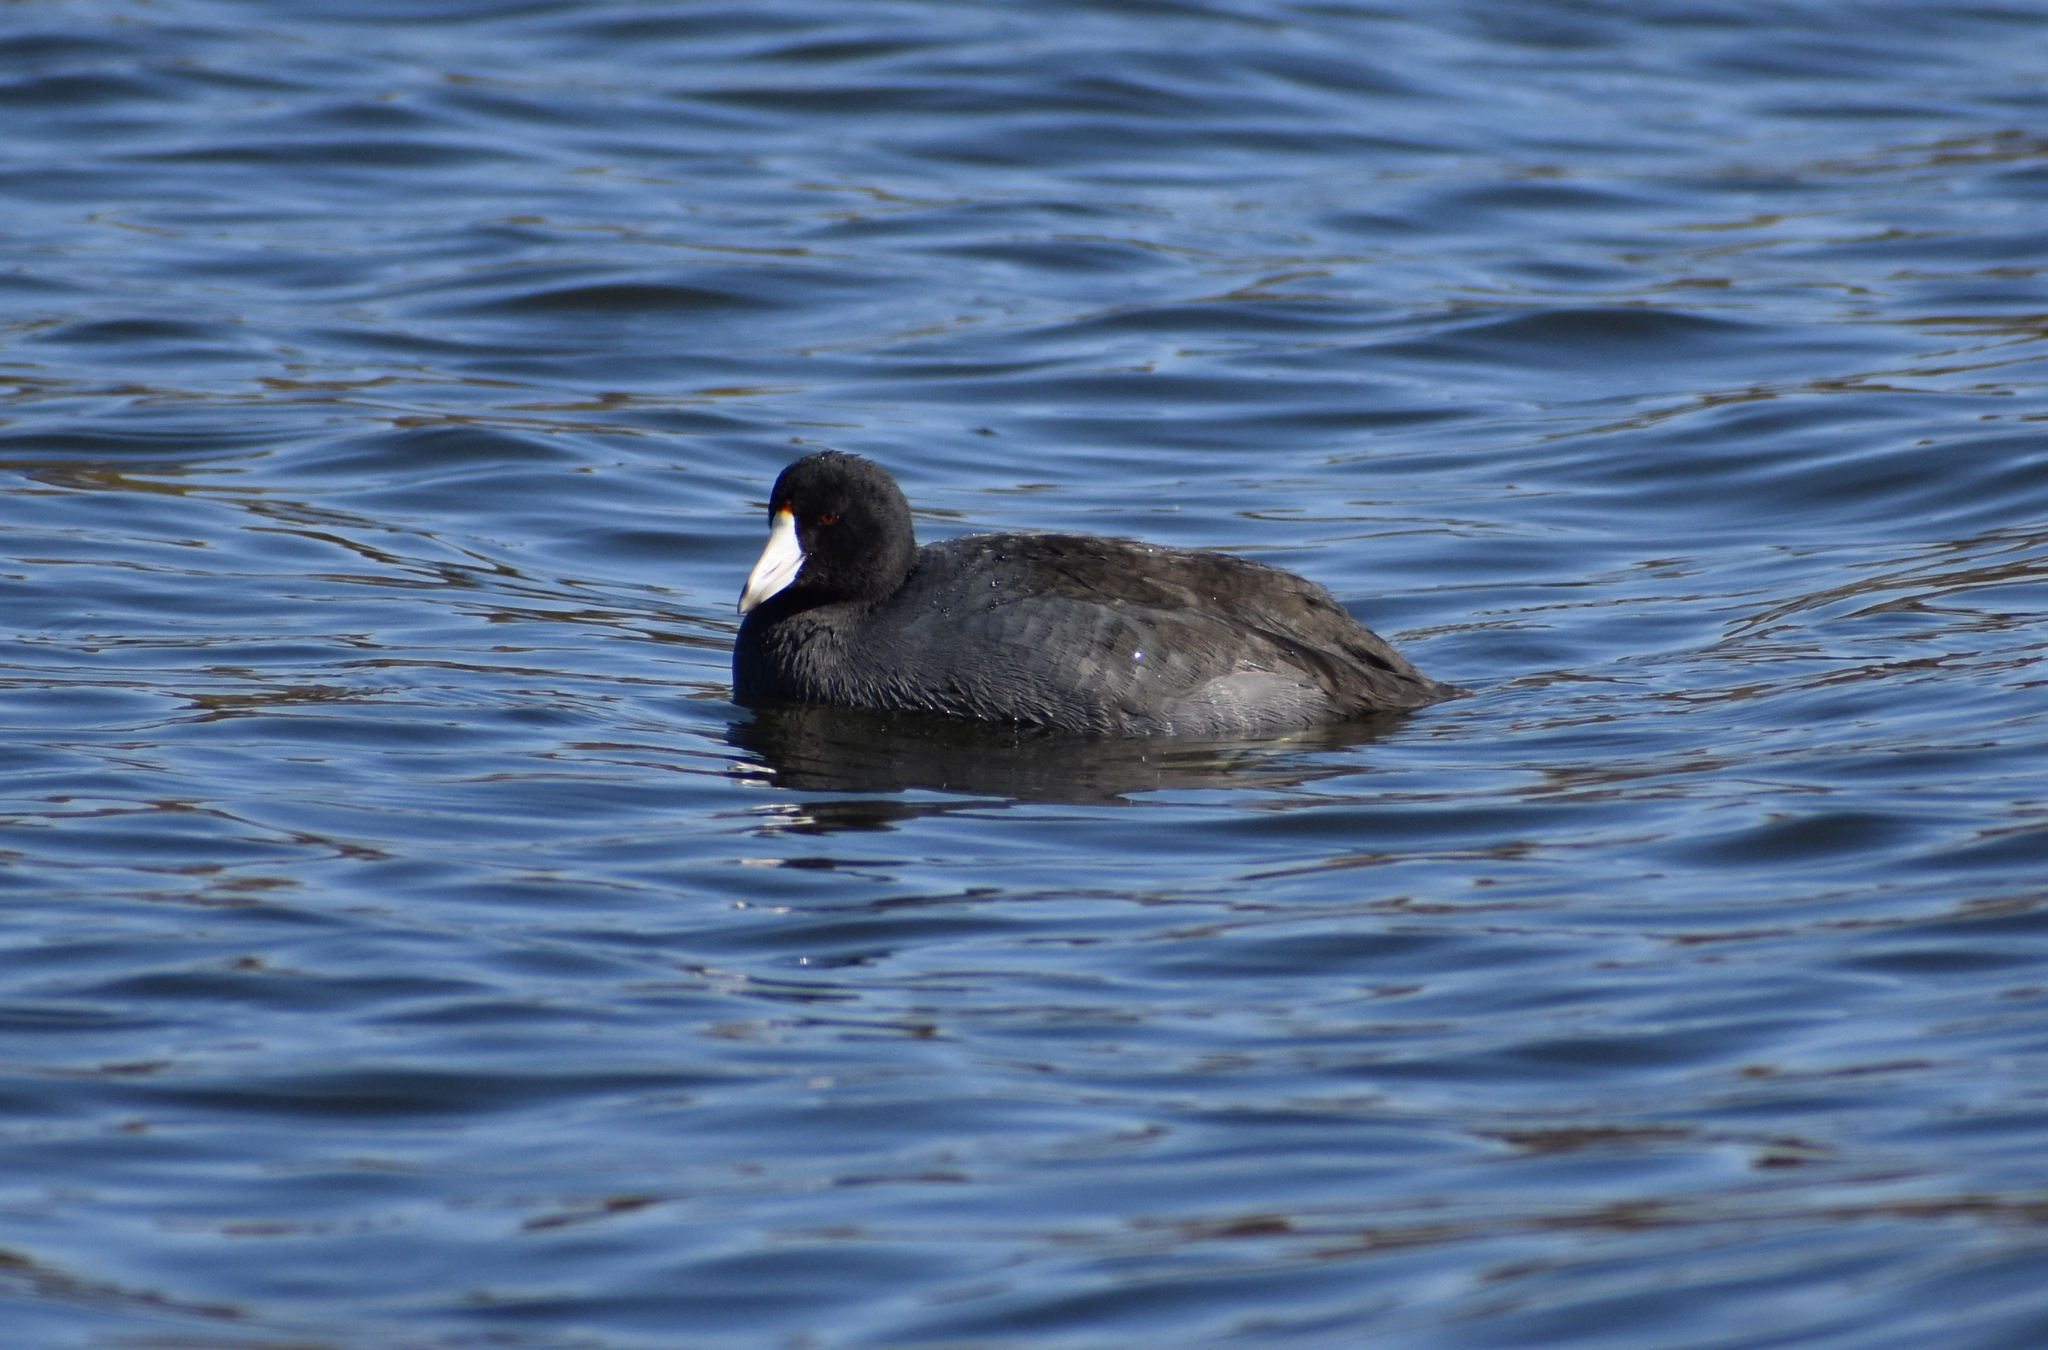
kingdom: Animalia
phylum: Chordata
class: Aves
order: Gruiformes
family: Rallidae
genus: Fulica
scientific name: Fulica americana
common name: American coot
